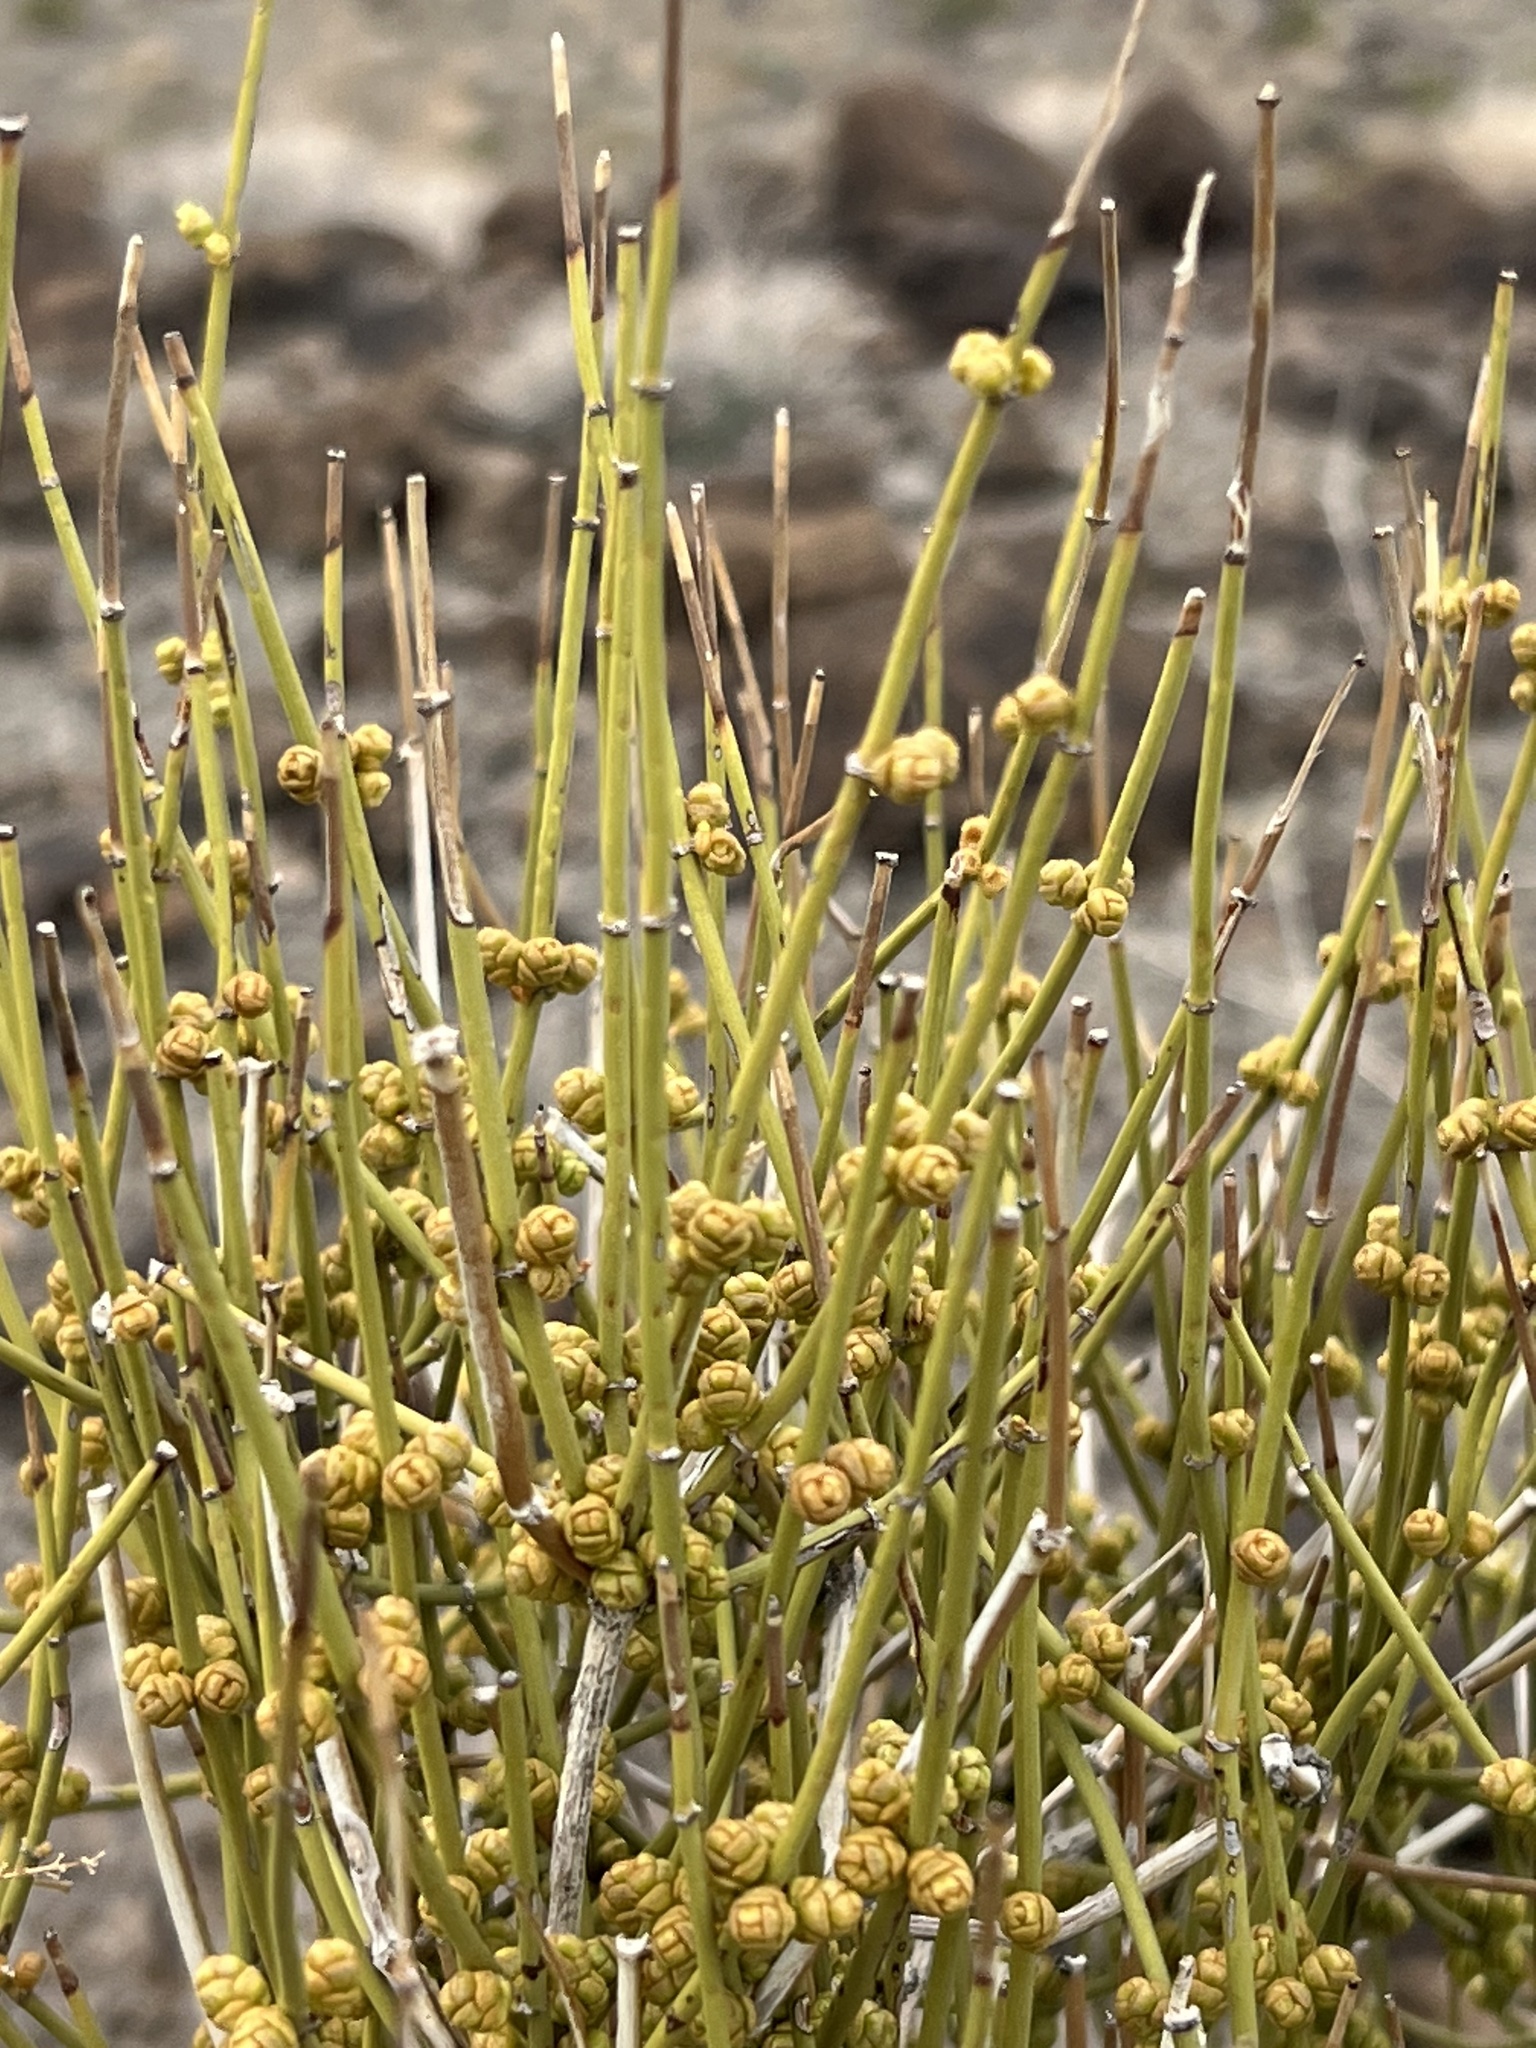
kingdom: Plantae
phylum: Tracheophyta
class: Gnetopsida
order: Ephedrales
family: Ephedraceae
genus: Ephedra
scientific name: Ephedra viridis
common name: Green ephedra
